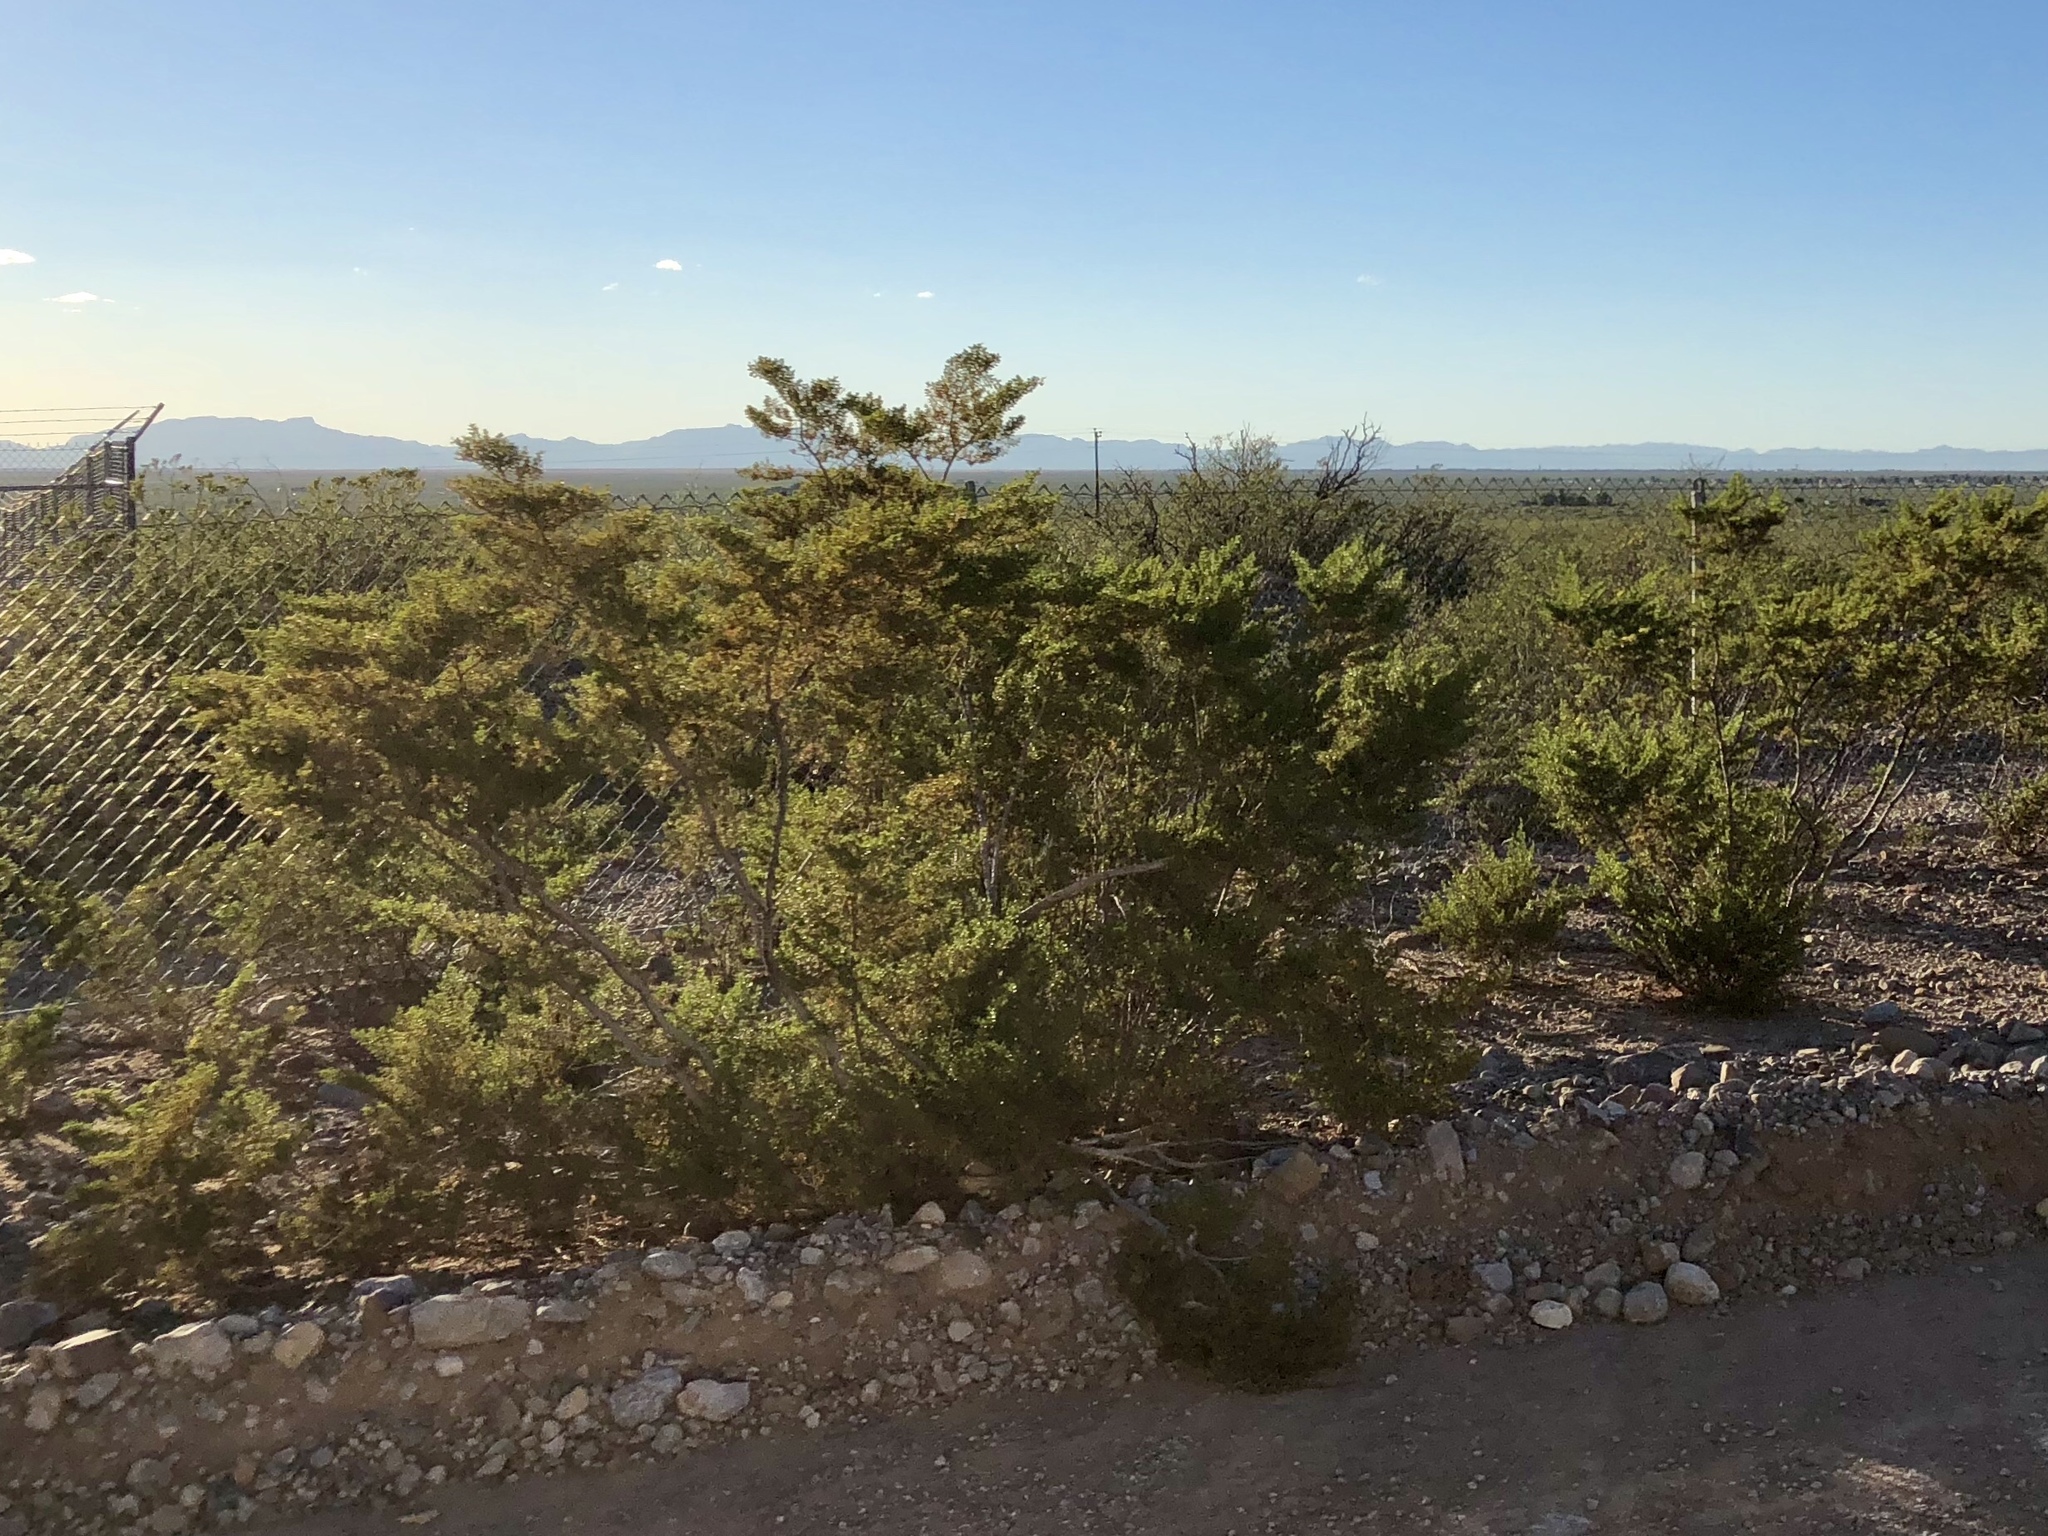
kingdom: Plantae
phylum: Tracheophyta
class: Magnoliopsida
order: Zygophyllales
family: Zygophyllaceae
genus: Larrea
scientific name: Larrea tridentata
